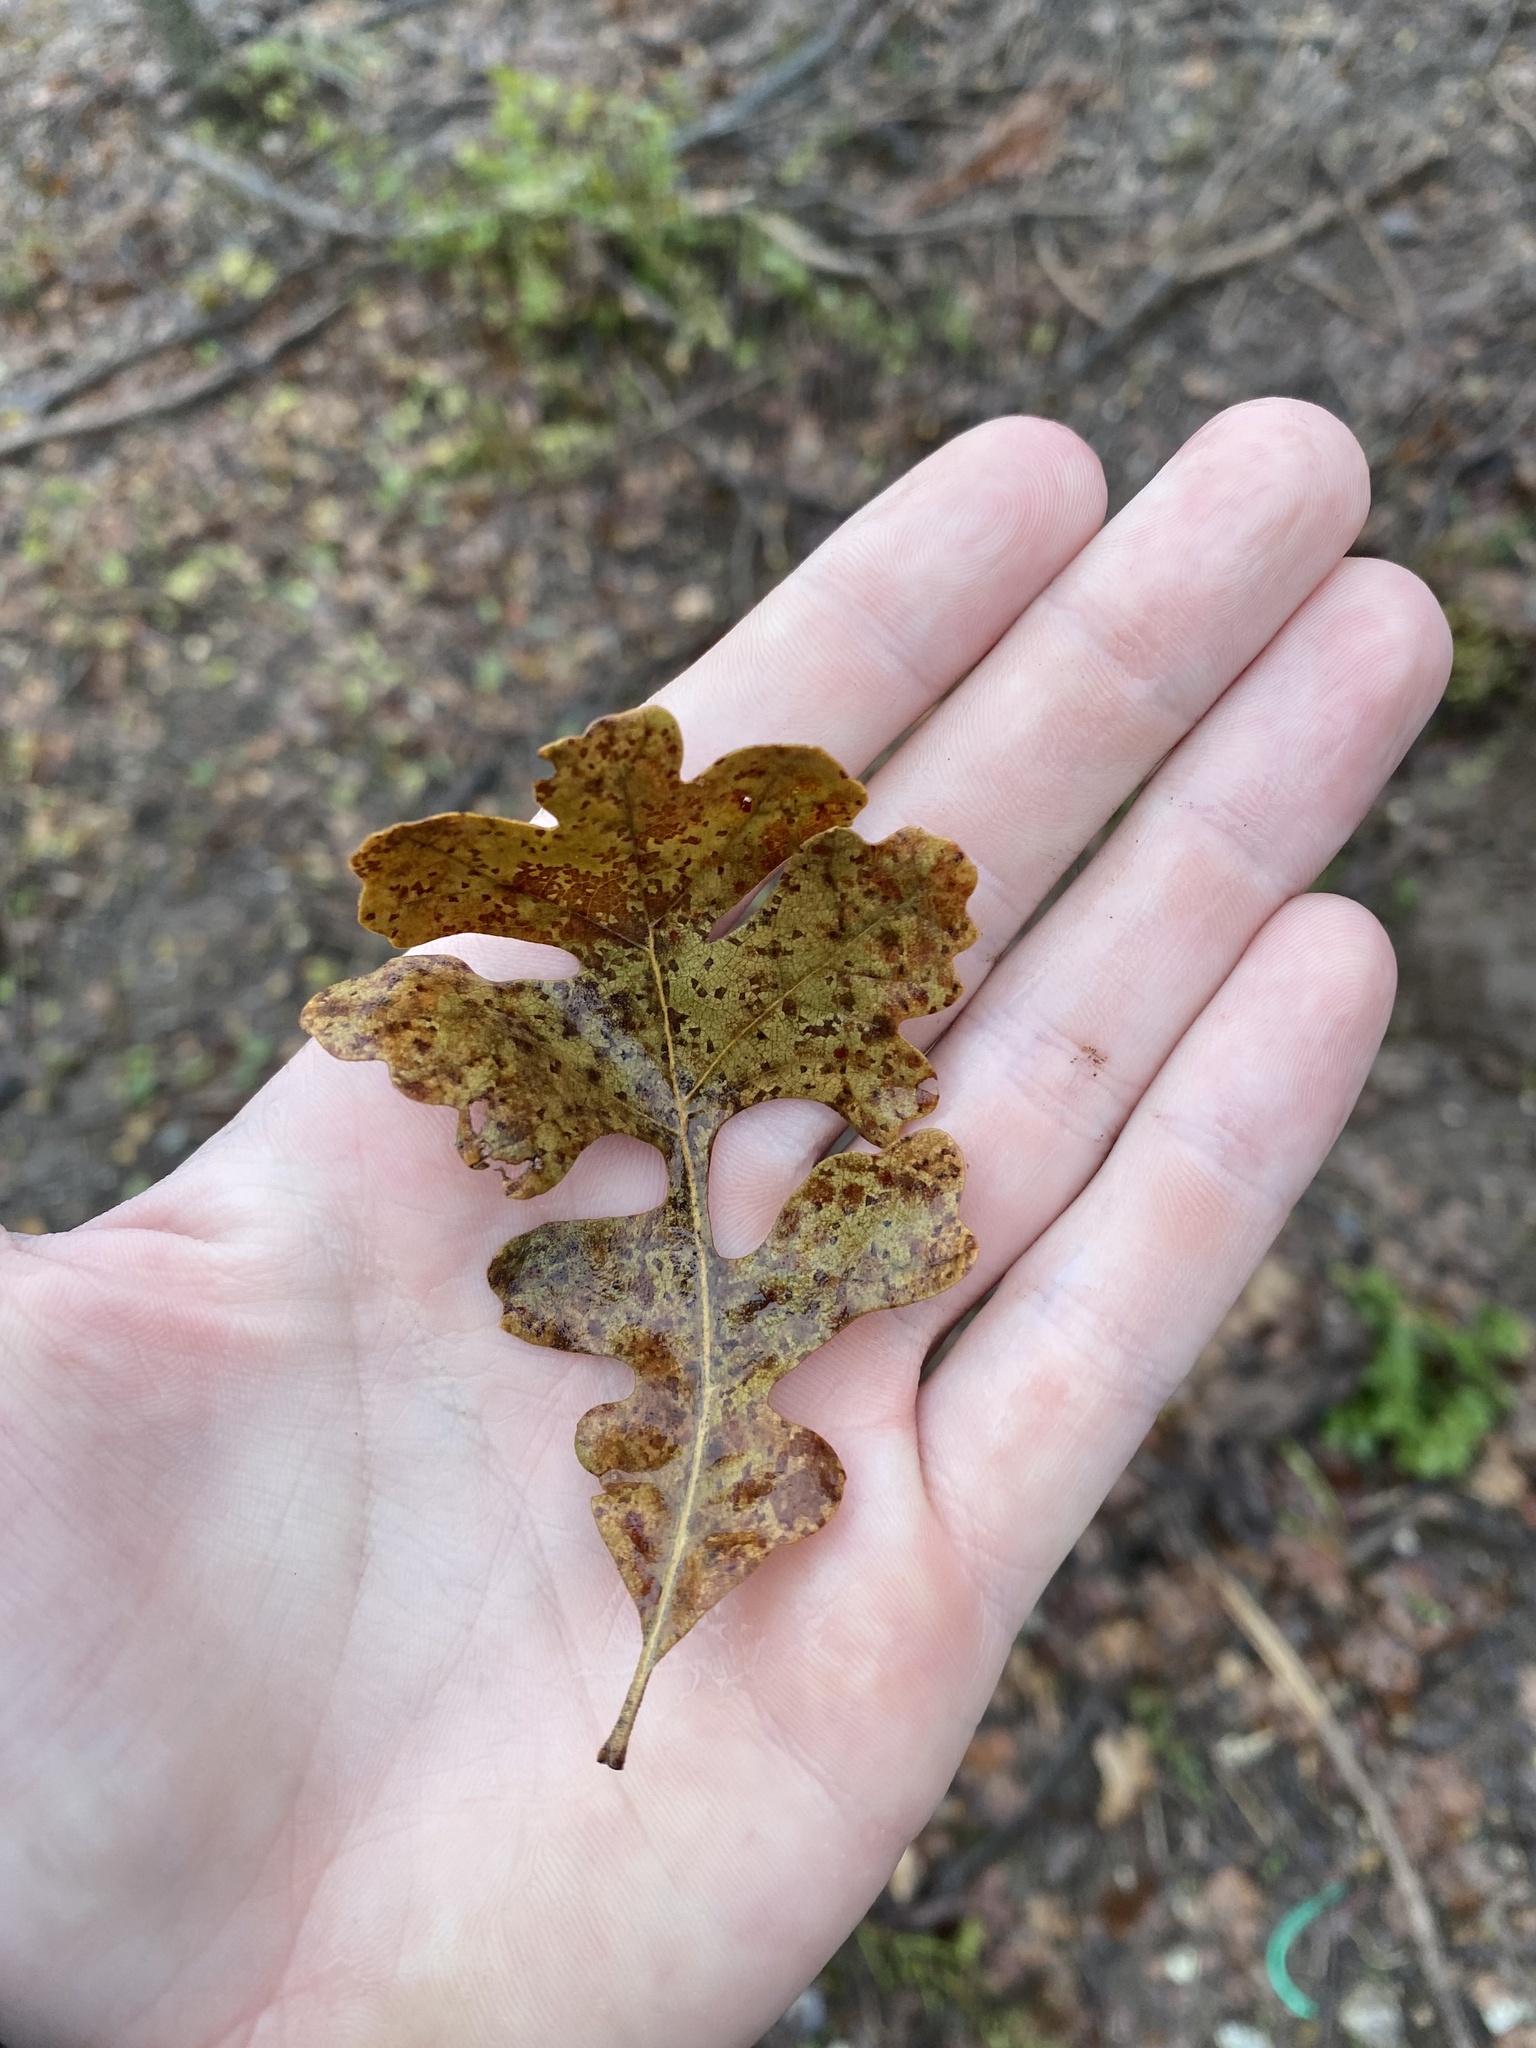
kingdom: Plantae
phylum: Tracheophyta
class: Magnoliopsida
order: Fagales
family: Fagaceae
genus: Quercus
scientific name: Quercus lobata
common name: Valley oak
